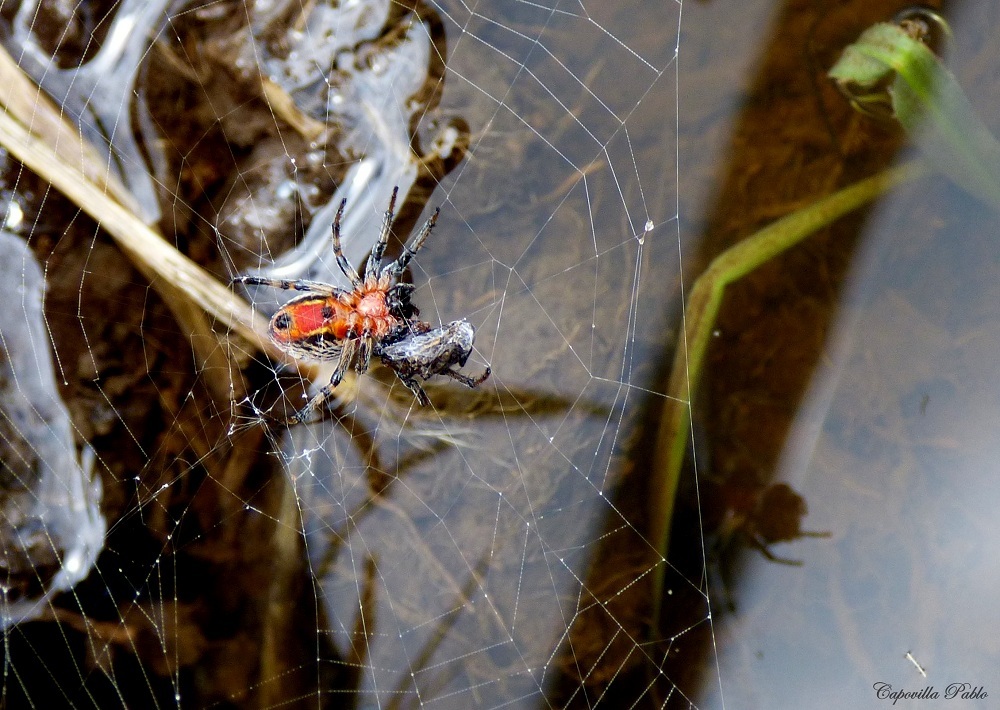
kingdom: Animalia
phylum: Arthropoda
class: Arachnida
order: Araneae
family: Araneidae
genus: Alpaida
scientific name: Alpaida versicolor
